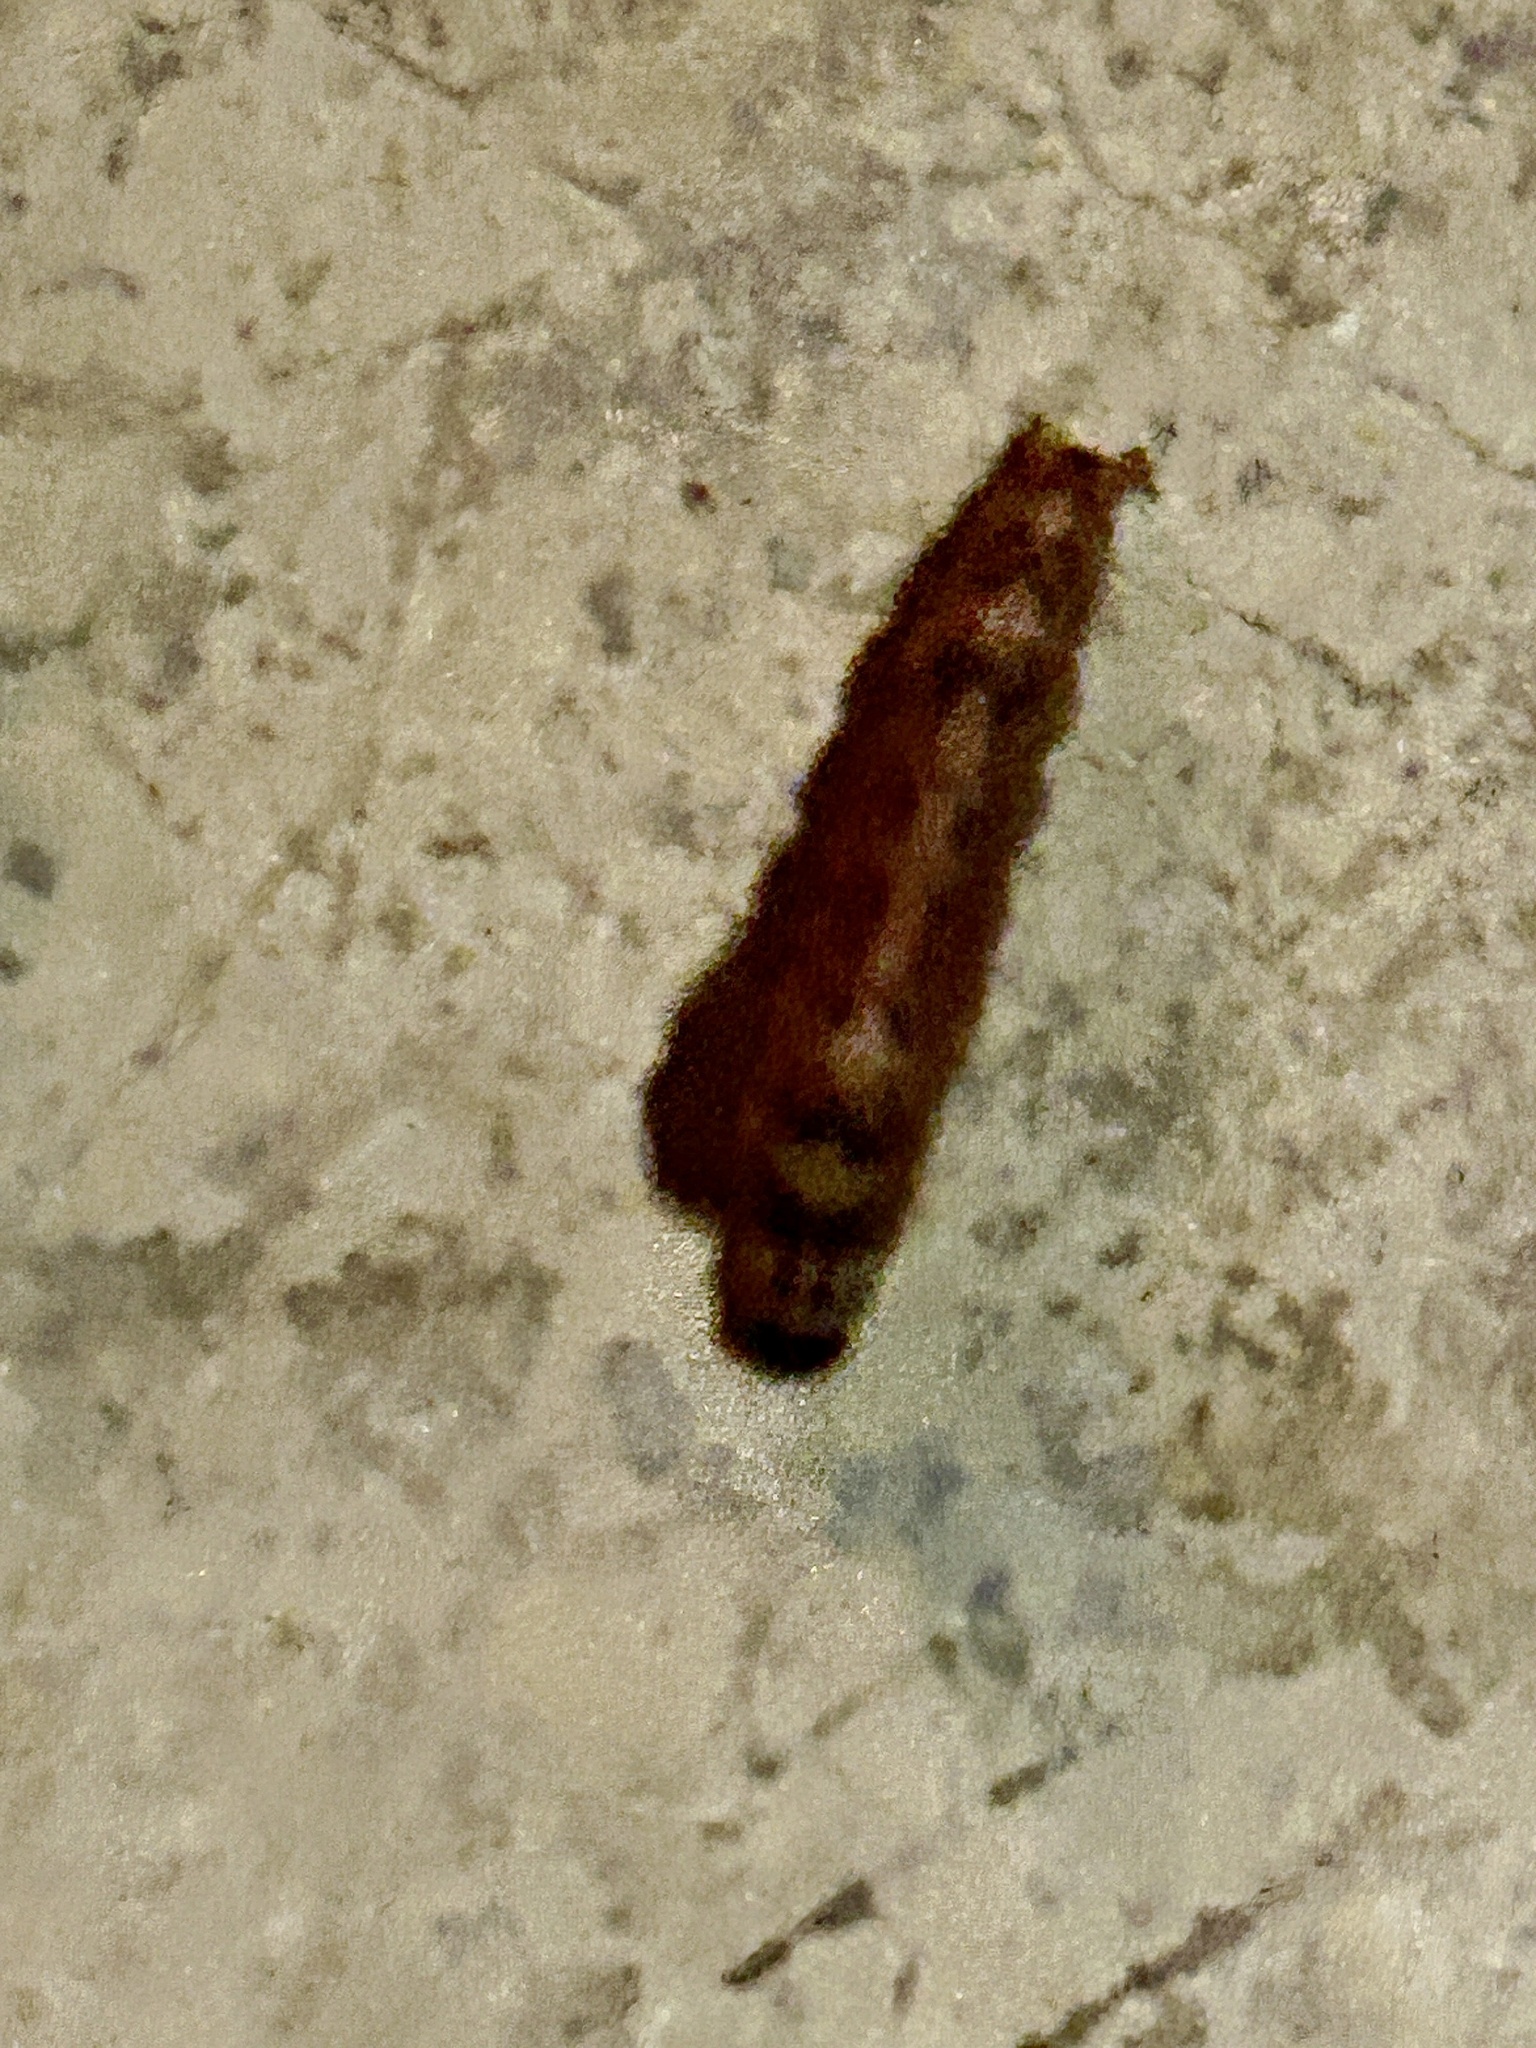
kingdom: Animalia
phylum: Arthropoda
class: Insecta
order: Lepidoptera
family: Erebidae
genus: Pandesma
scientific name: Pandesma robusta
